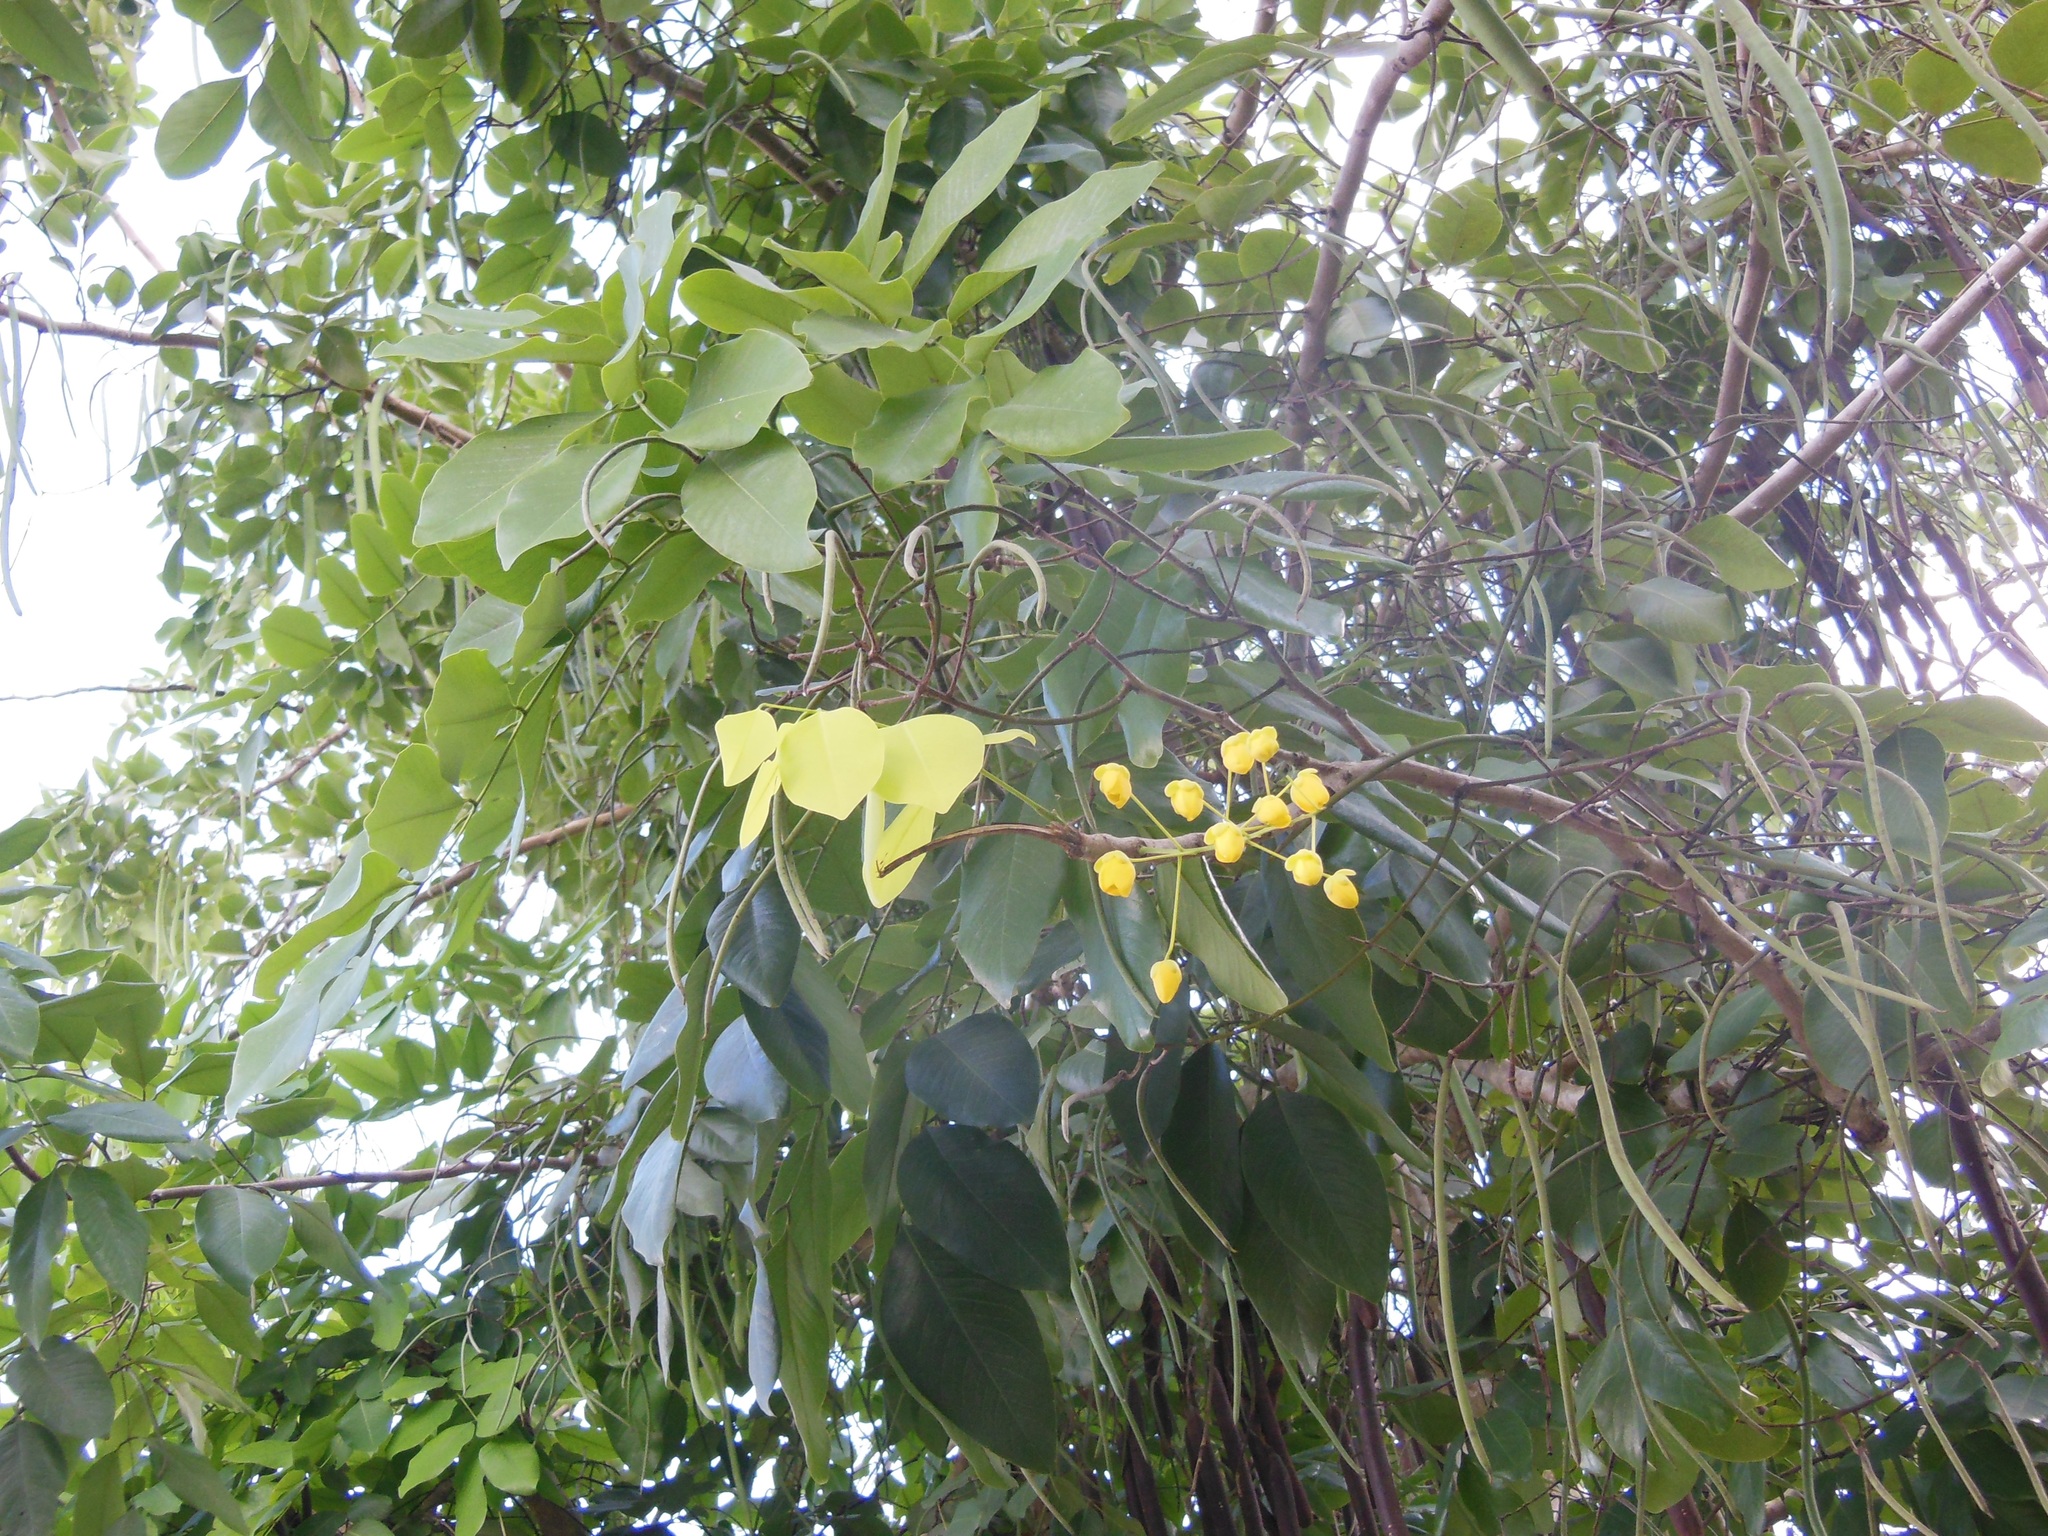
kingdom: Plantae
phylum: Tracheophyta
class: Magnoliopsida
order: Fabales
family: Fabaceae
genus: Cassia
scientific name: Cassia fistula
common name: Golden shower
